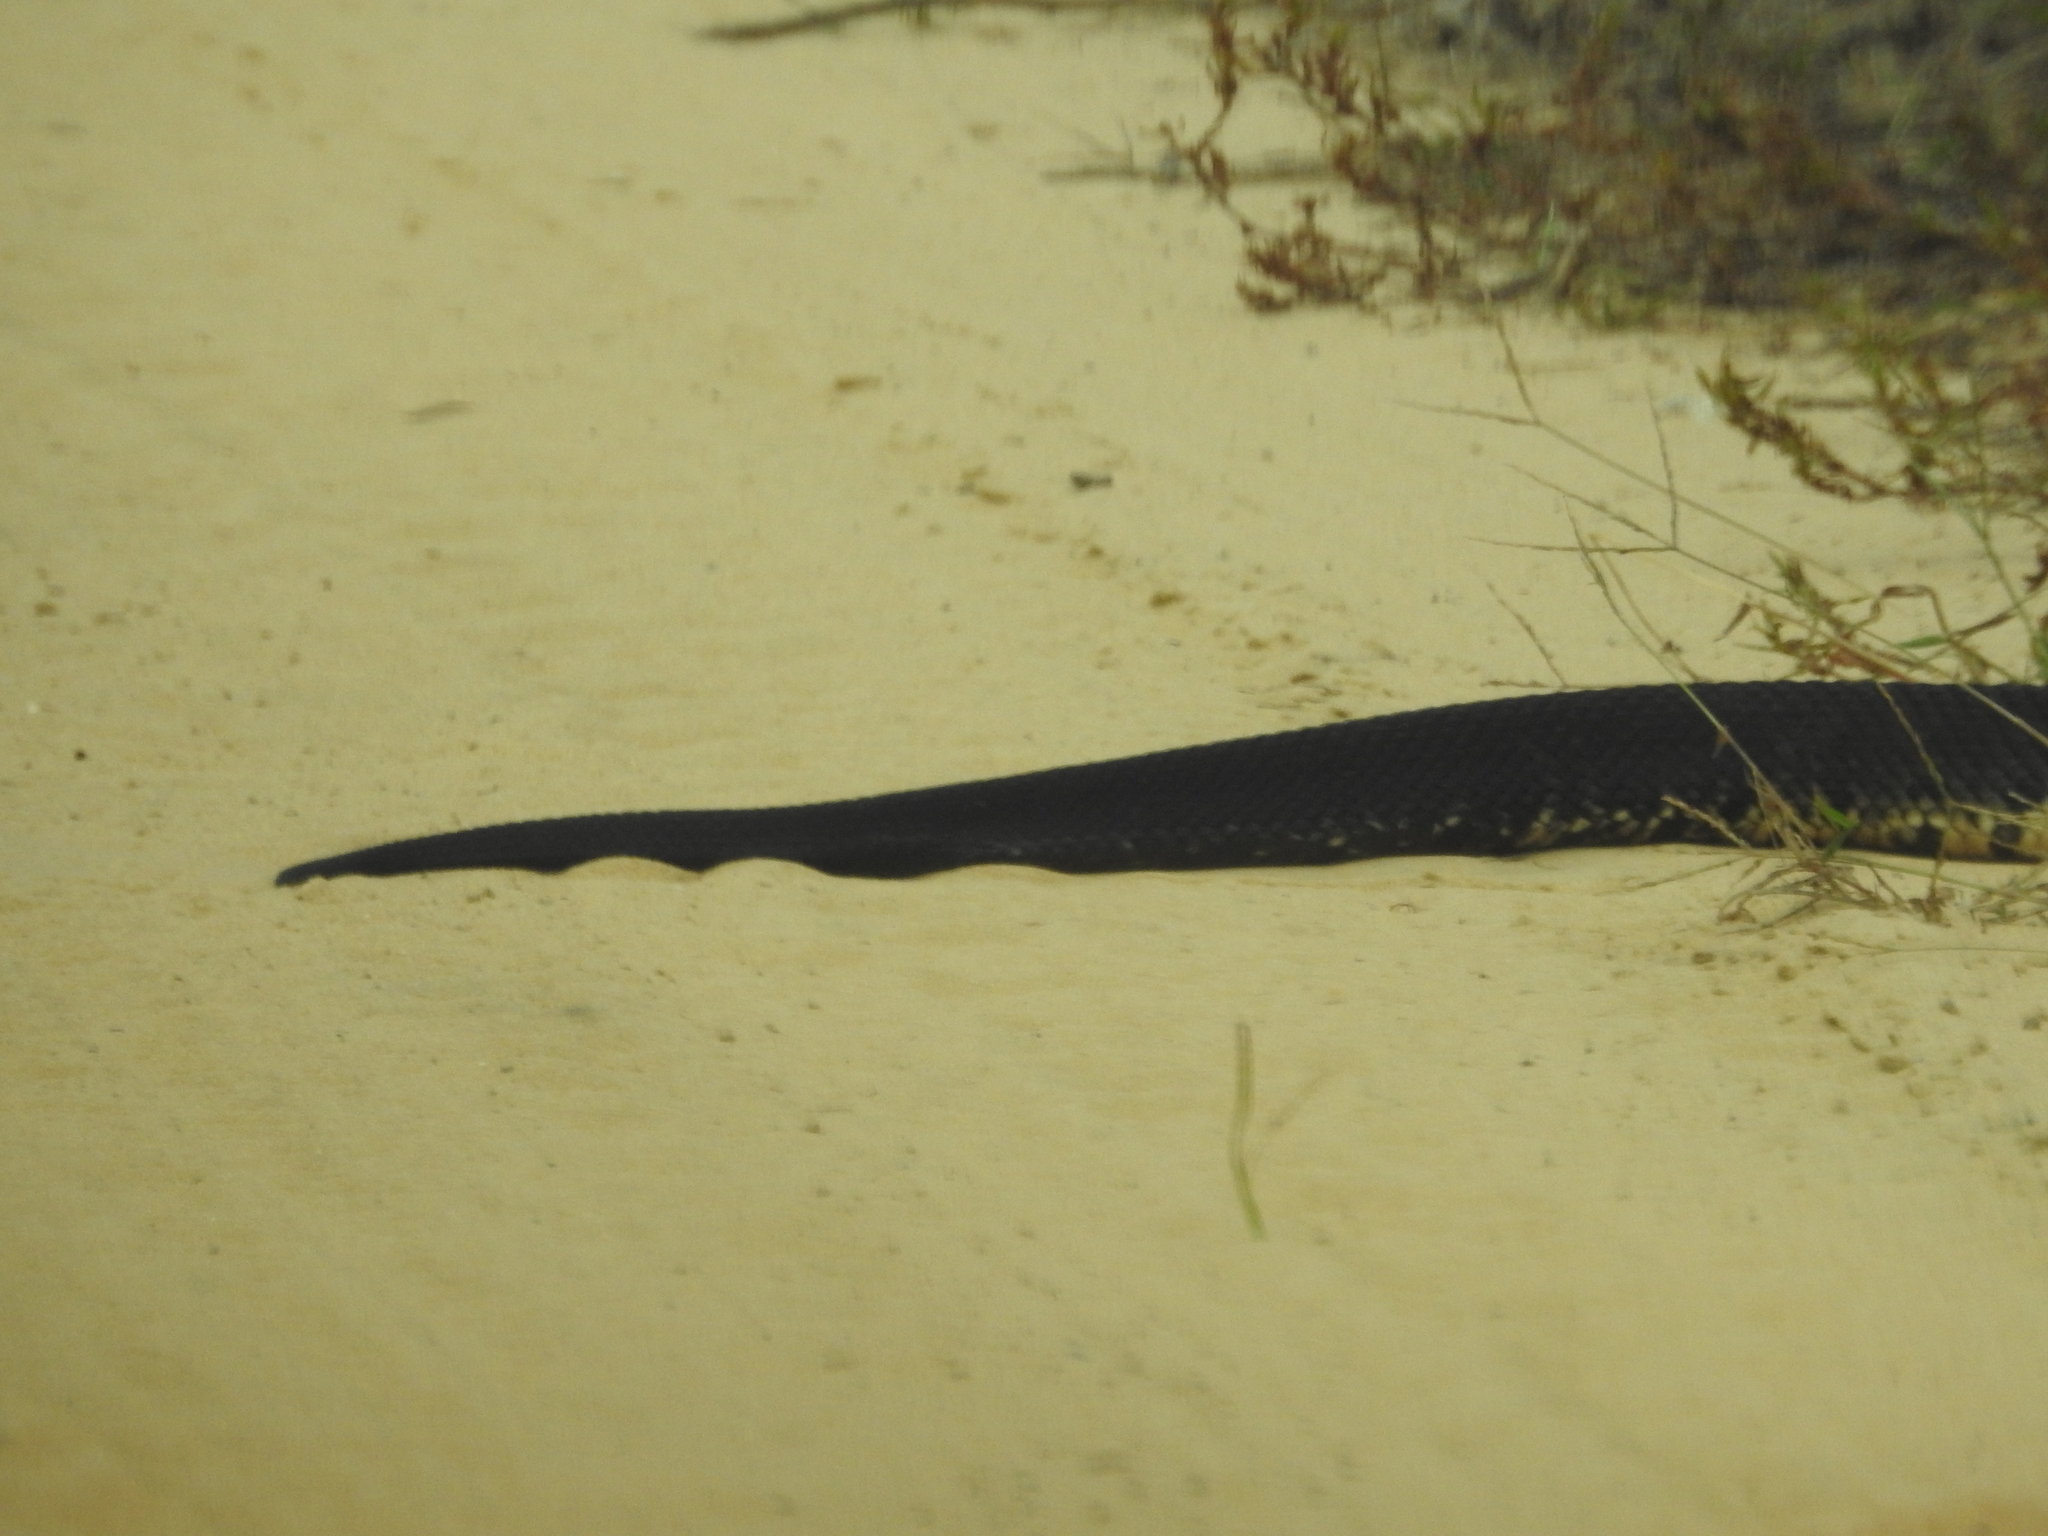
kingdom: Animalia
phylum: Chordata
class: Squamata
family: Viperidae
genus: Agkistrodon
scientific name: Agkistrodon conanti
